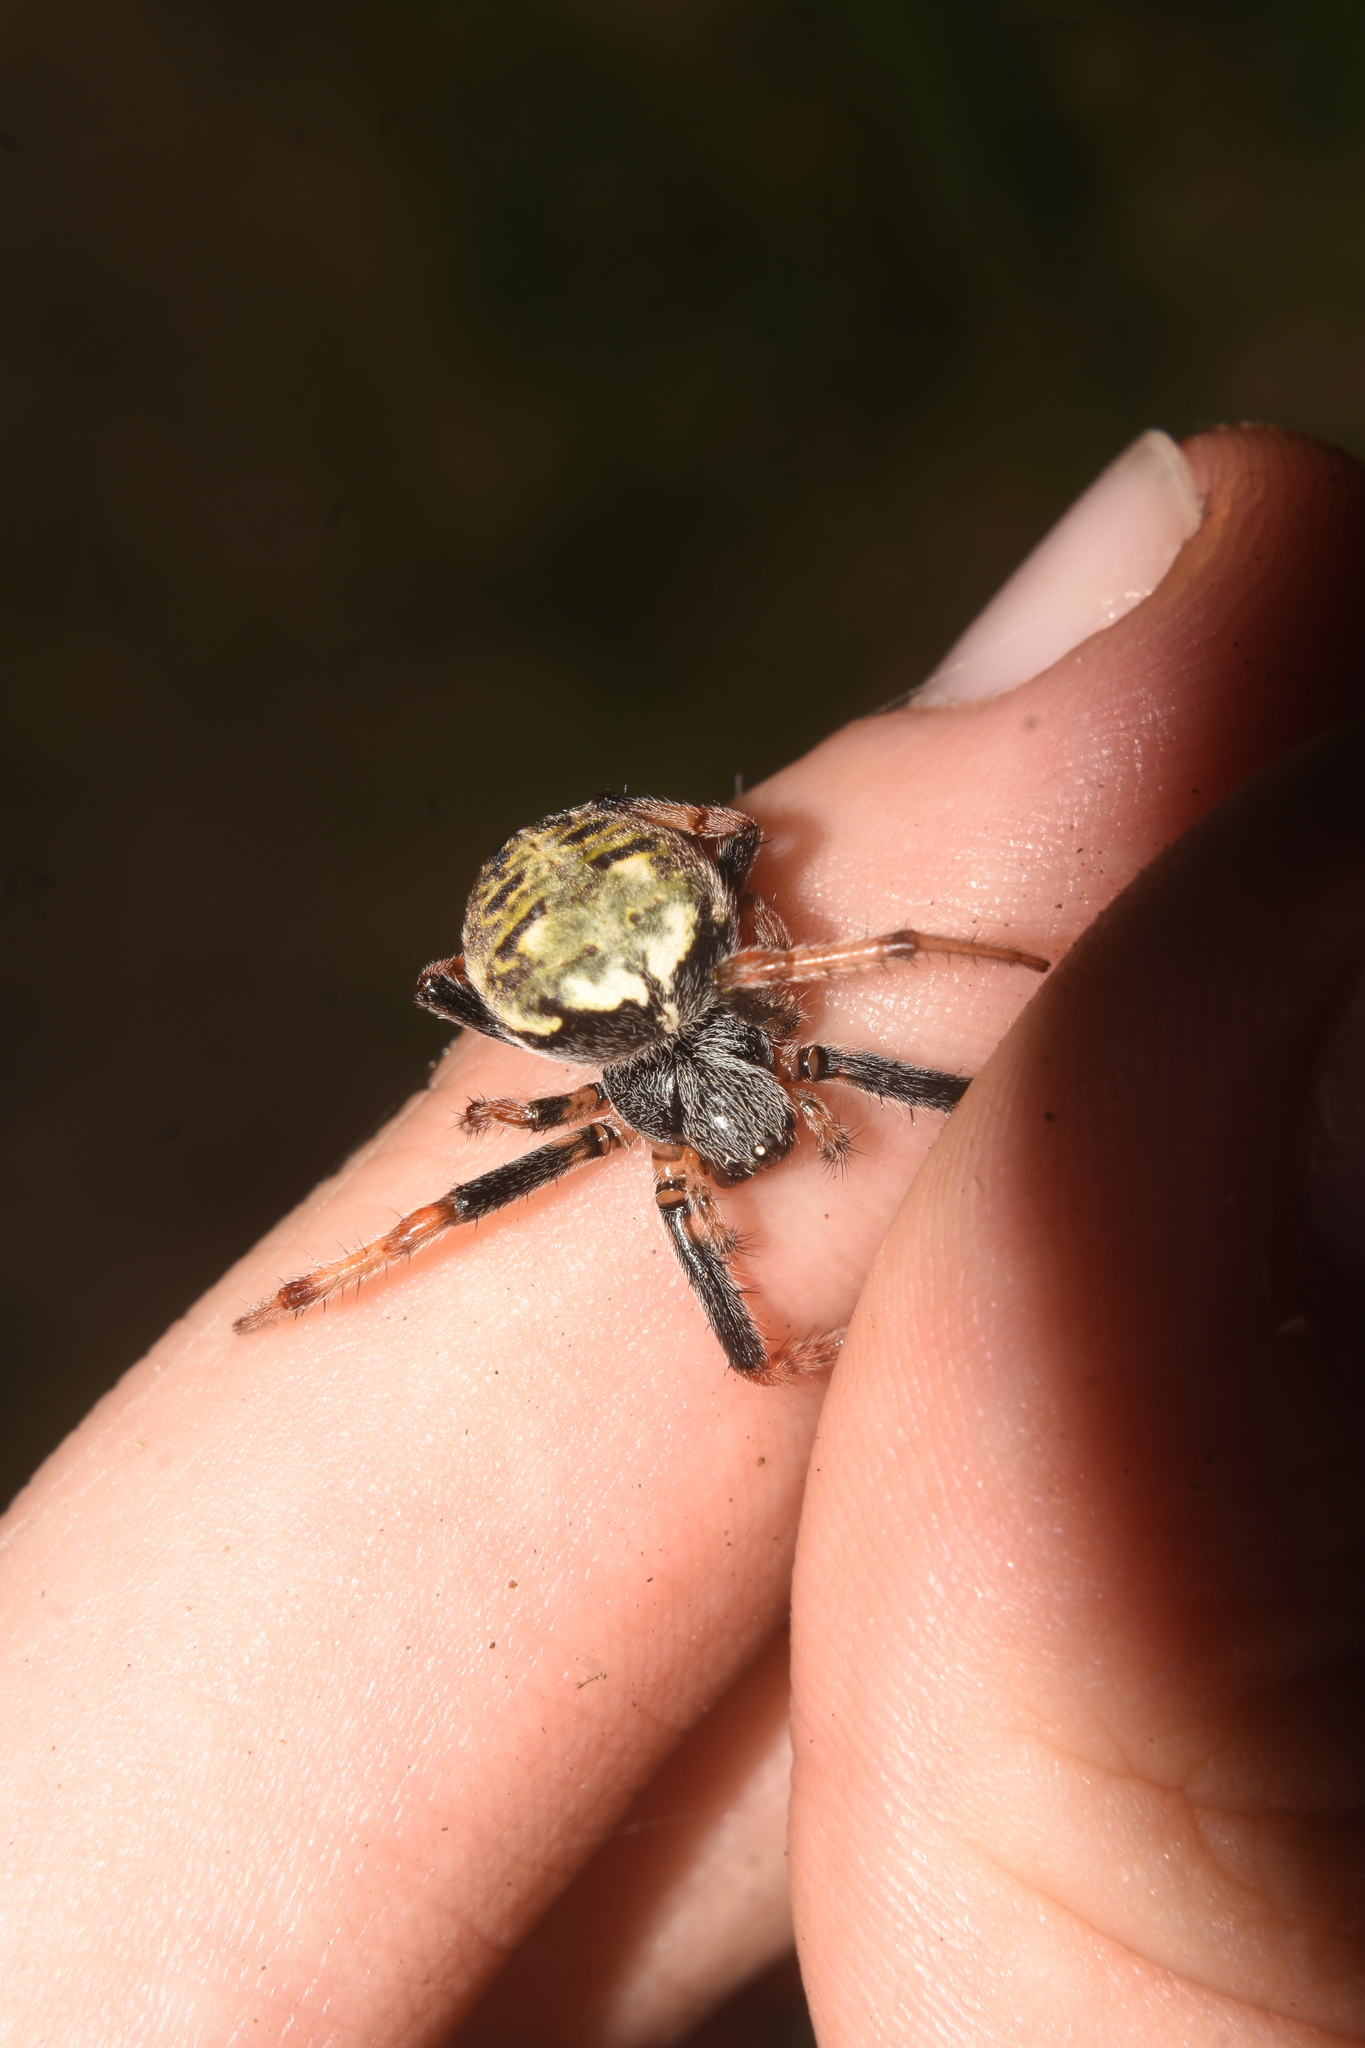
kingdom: Animalia
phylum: Arthropoda
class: Arachnida
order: Araneae
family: Araneidae
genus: Araneus
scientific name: Araneus granadensis
